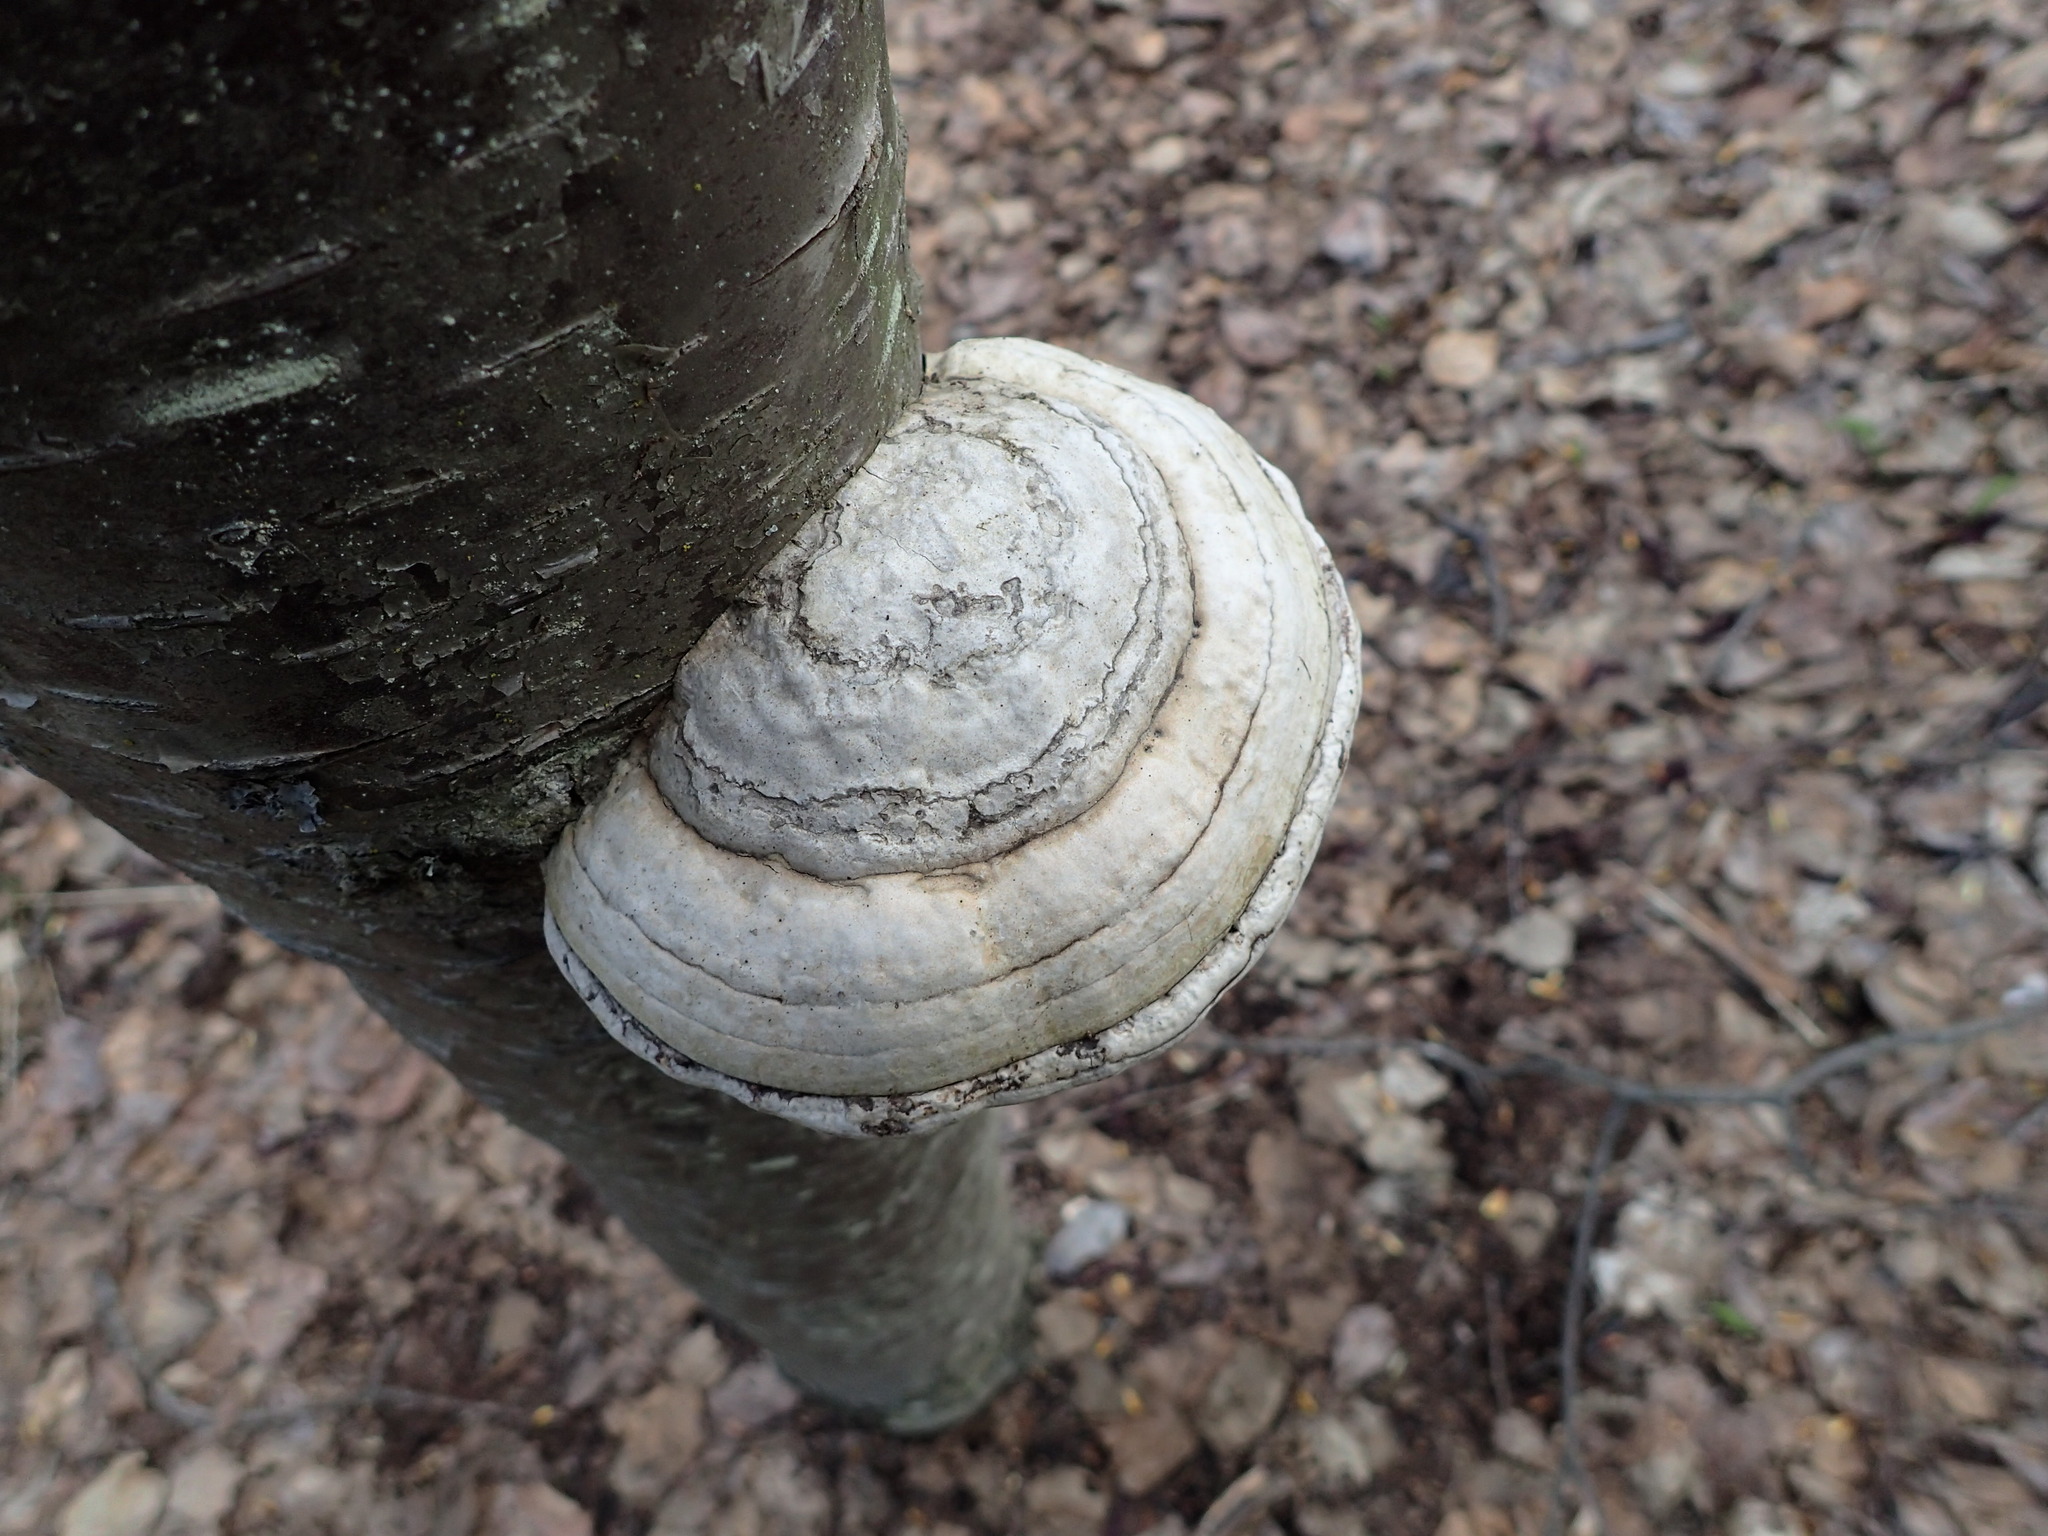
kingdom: Fungi
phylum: Basidiomycota
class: Agaricomycetes
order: Polyporales
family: Polyporaceae
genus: Fomes
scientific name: Fomes fomentarius
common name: Hoof fungus
